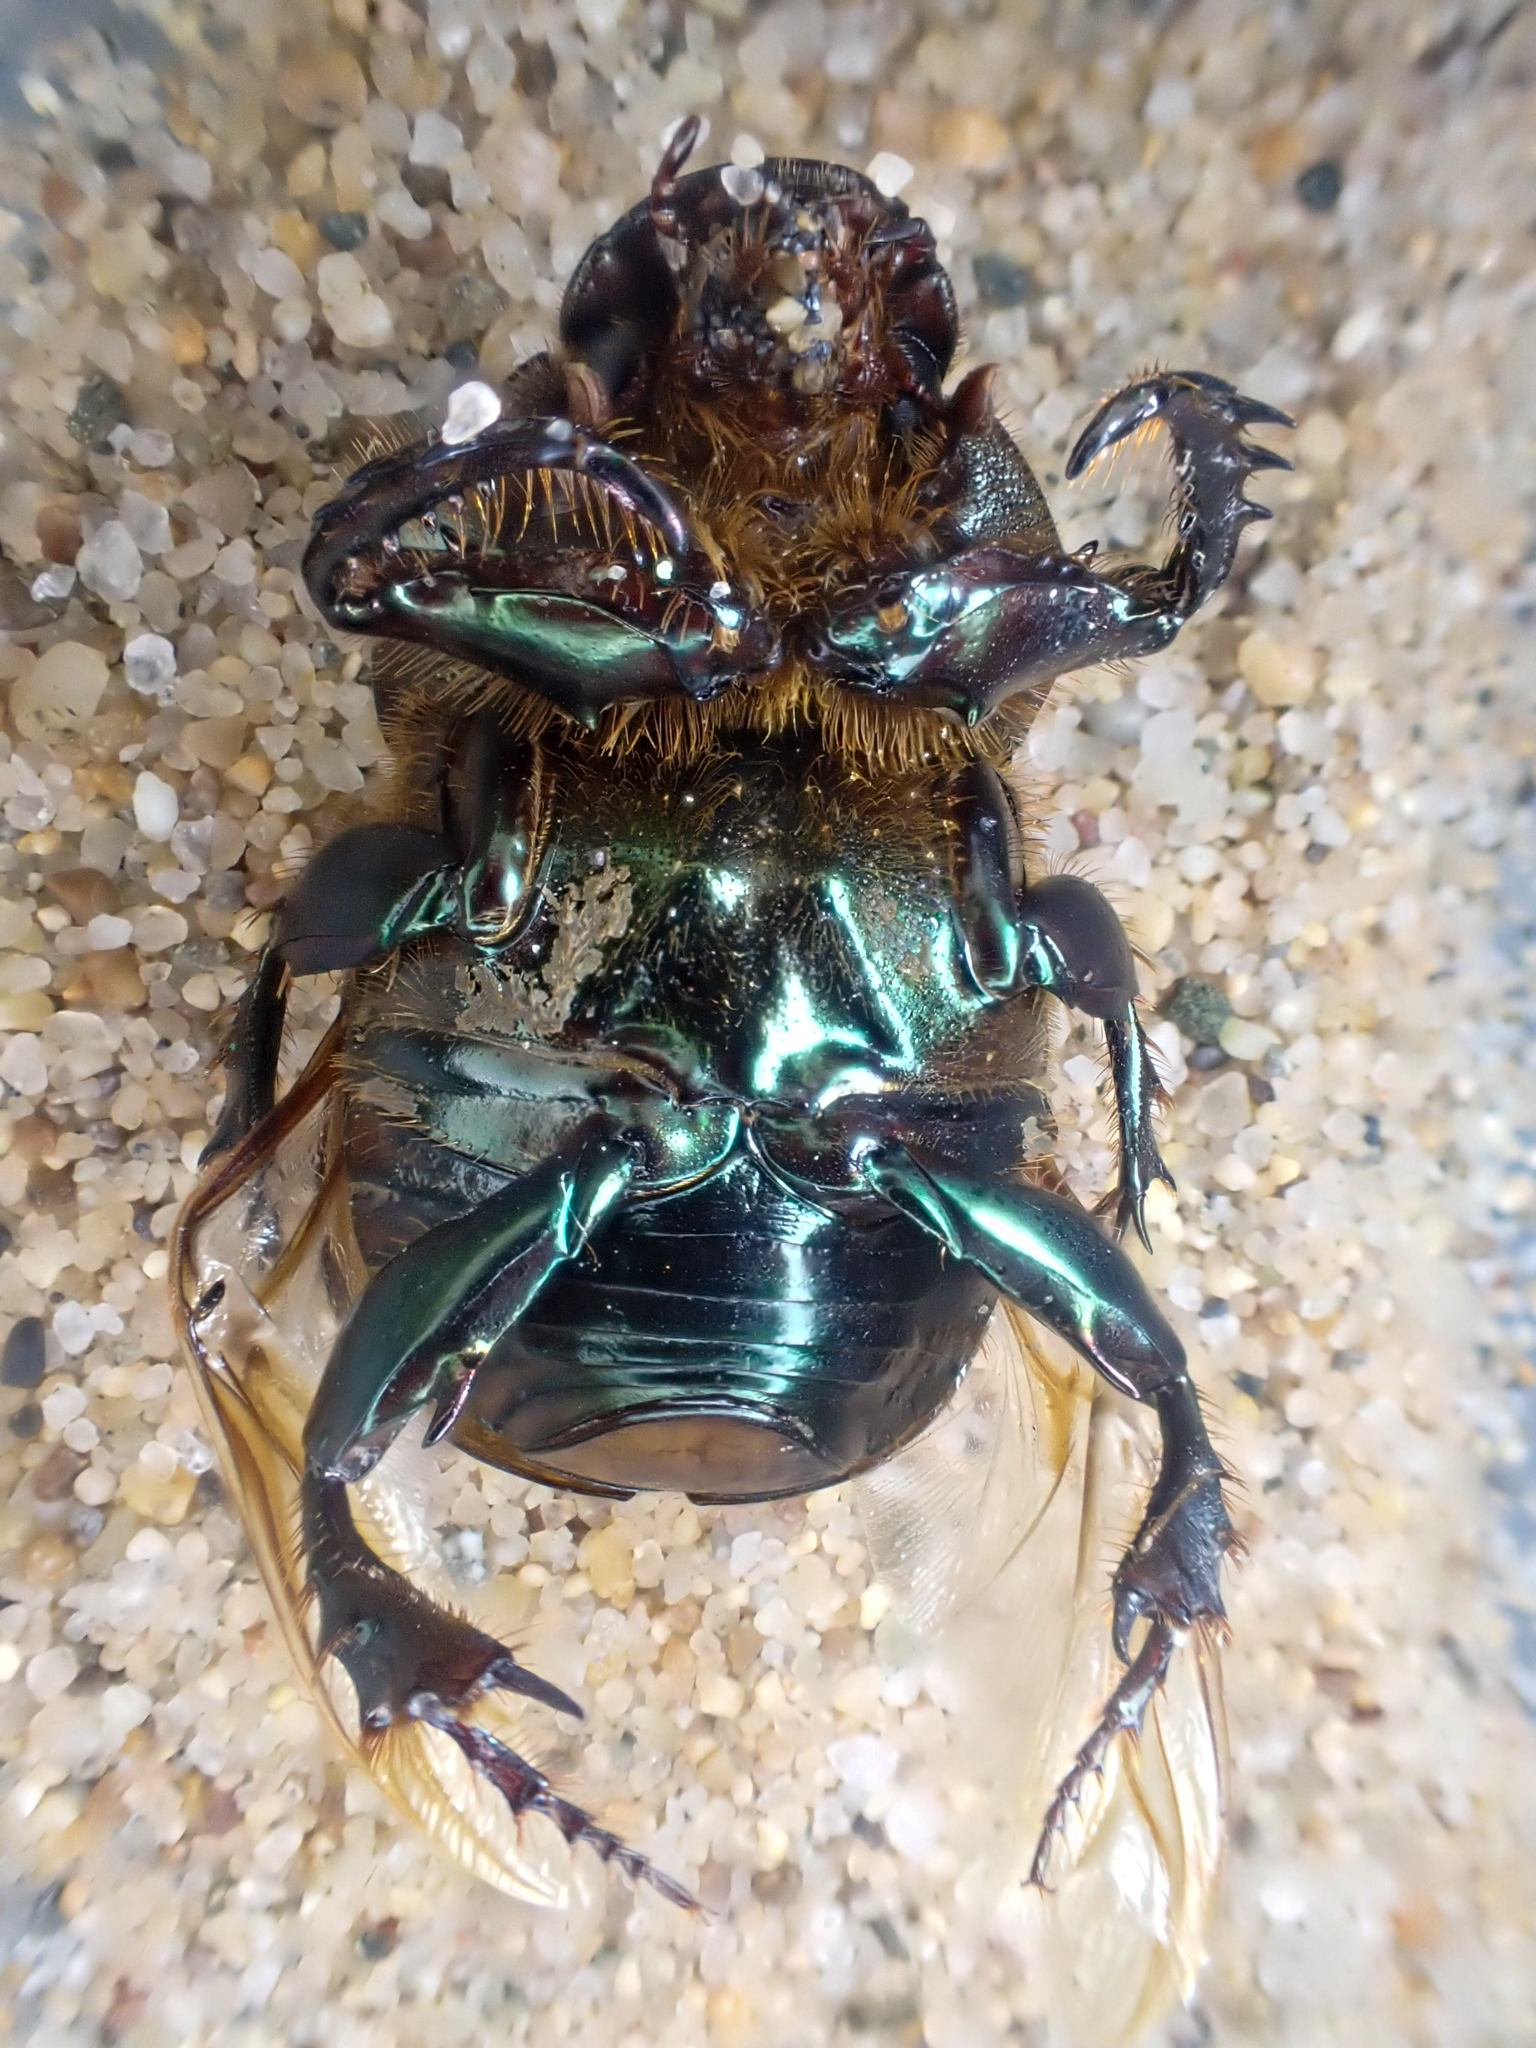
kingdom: Animalia
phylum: Arthropoda
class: Insecta
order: Coleoptera
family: Scarabaeidae
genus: Onitis
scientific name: Onitis alexis
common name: Alexis dung beetle
